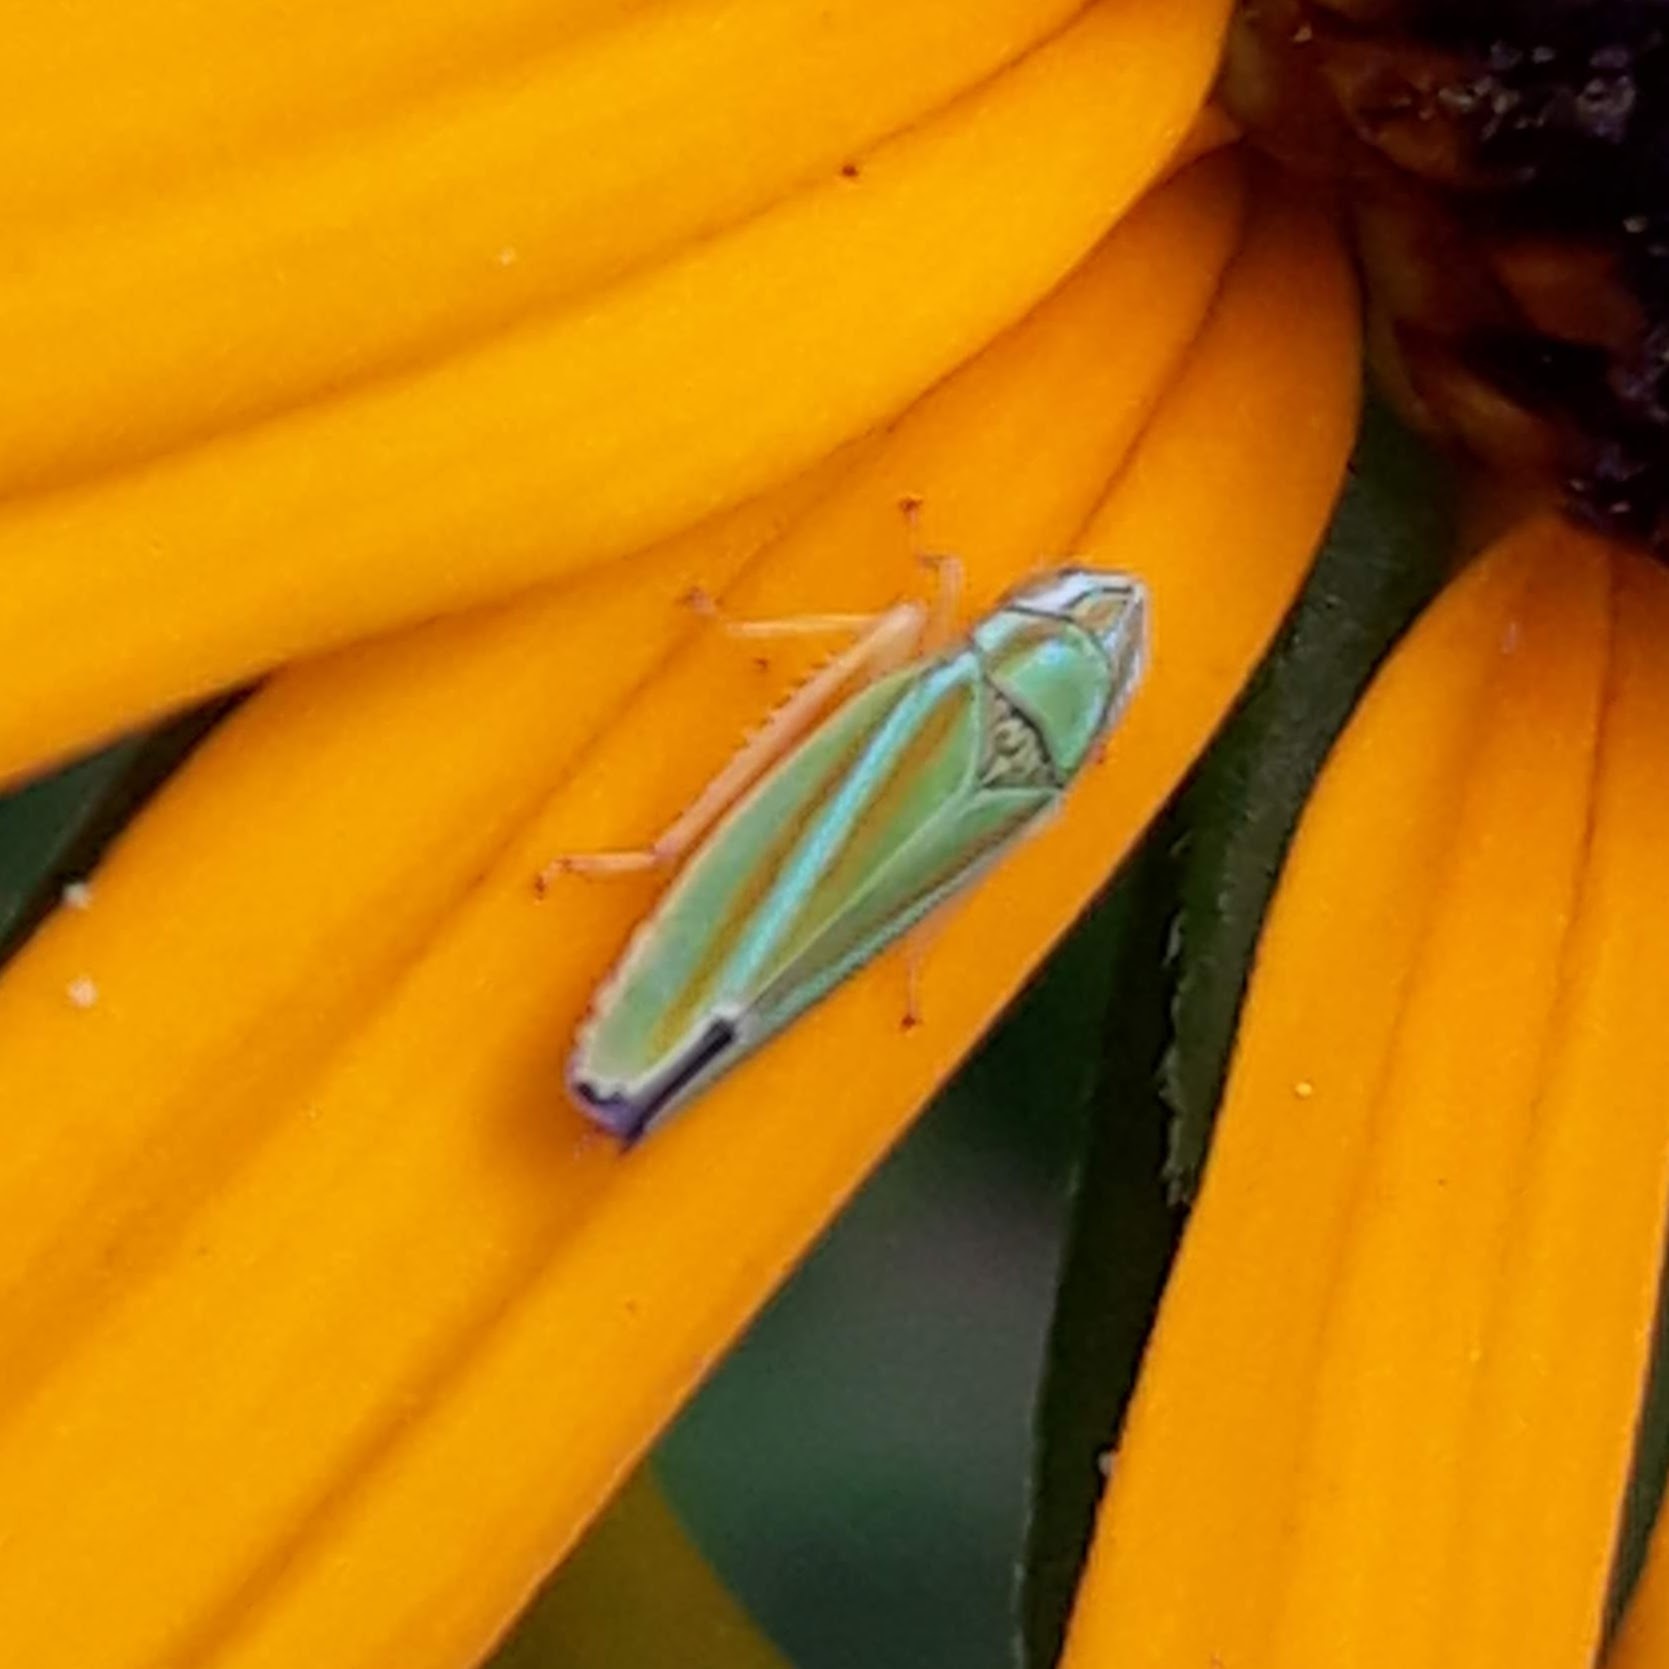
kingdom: Animalia
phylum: Arthropoda
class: Insecta
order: Hemiptera
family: Cicadellidae
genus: Graphocephala
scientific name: Graphocephala versuta
